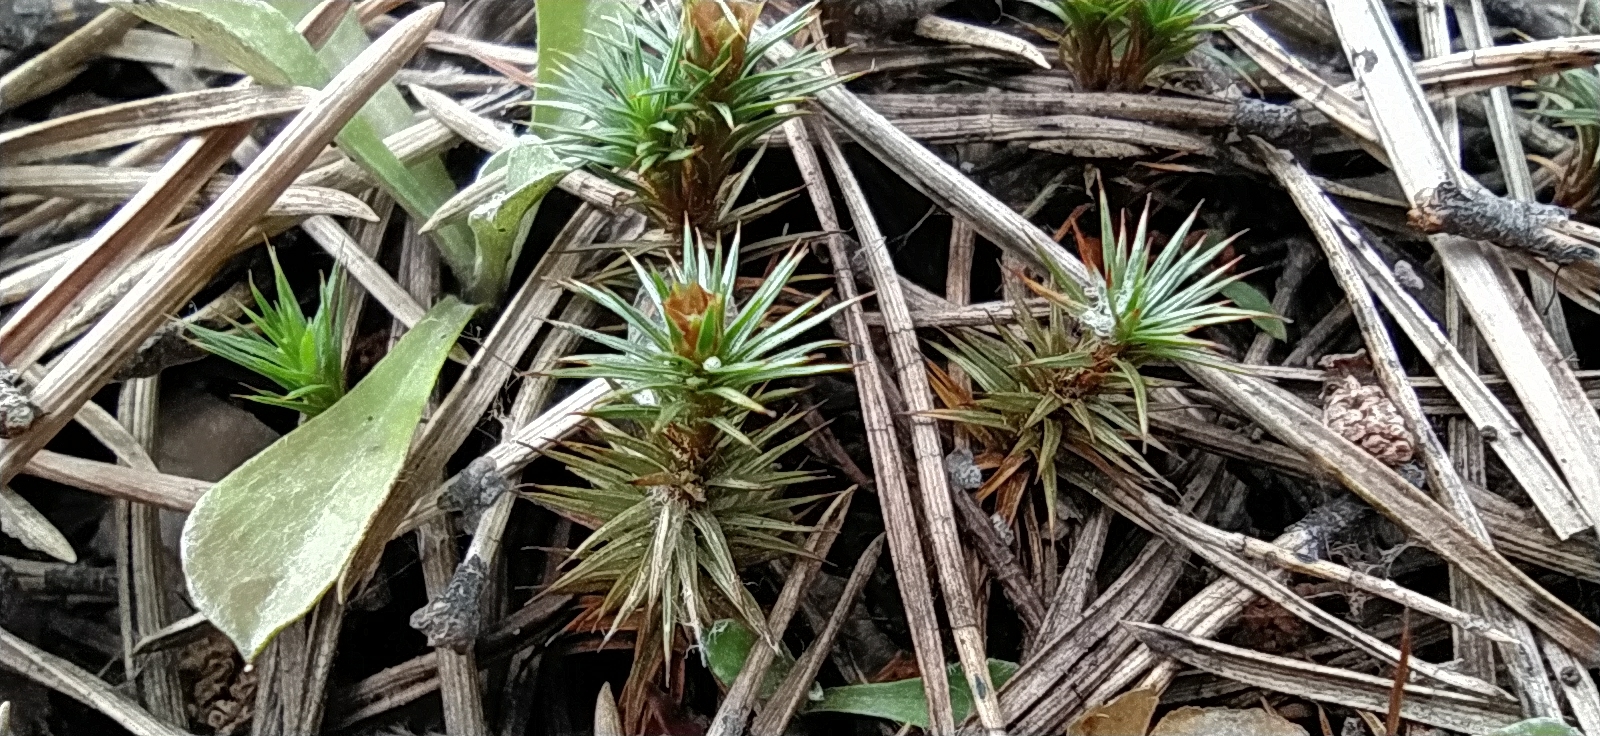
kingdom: Plantae
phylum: Bryophyta
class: Polytrichopsida
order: Polytrichales
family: Polytrichaceae
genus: Polytrichum
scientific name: Polytrichum juniperinum
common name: Juniper haircap moss
